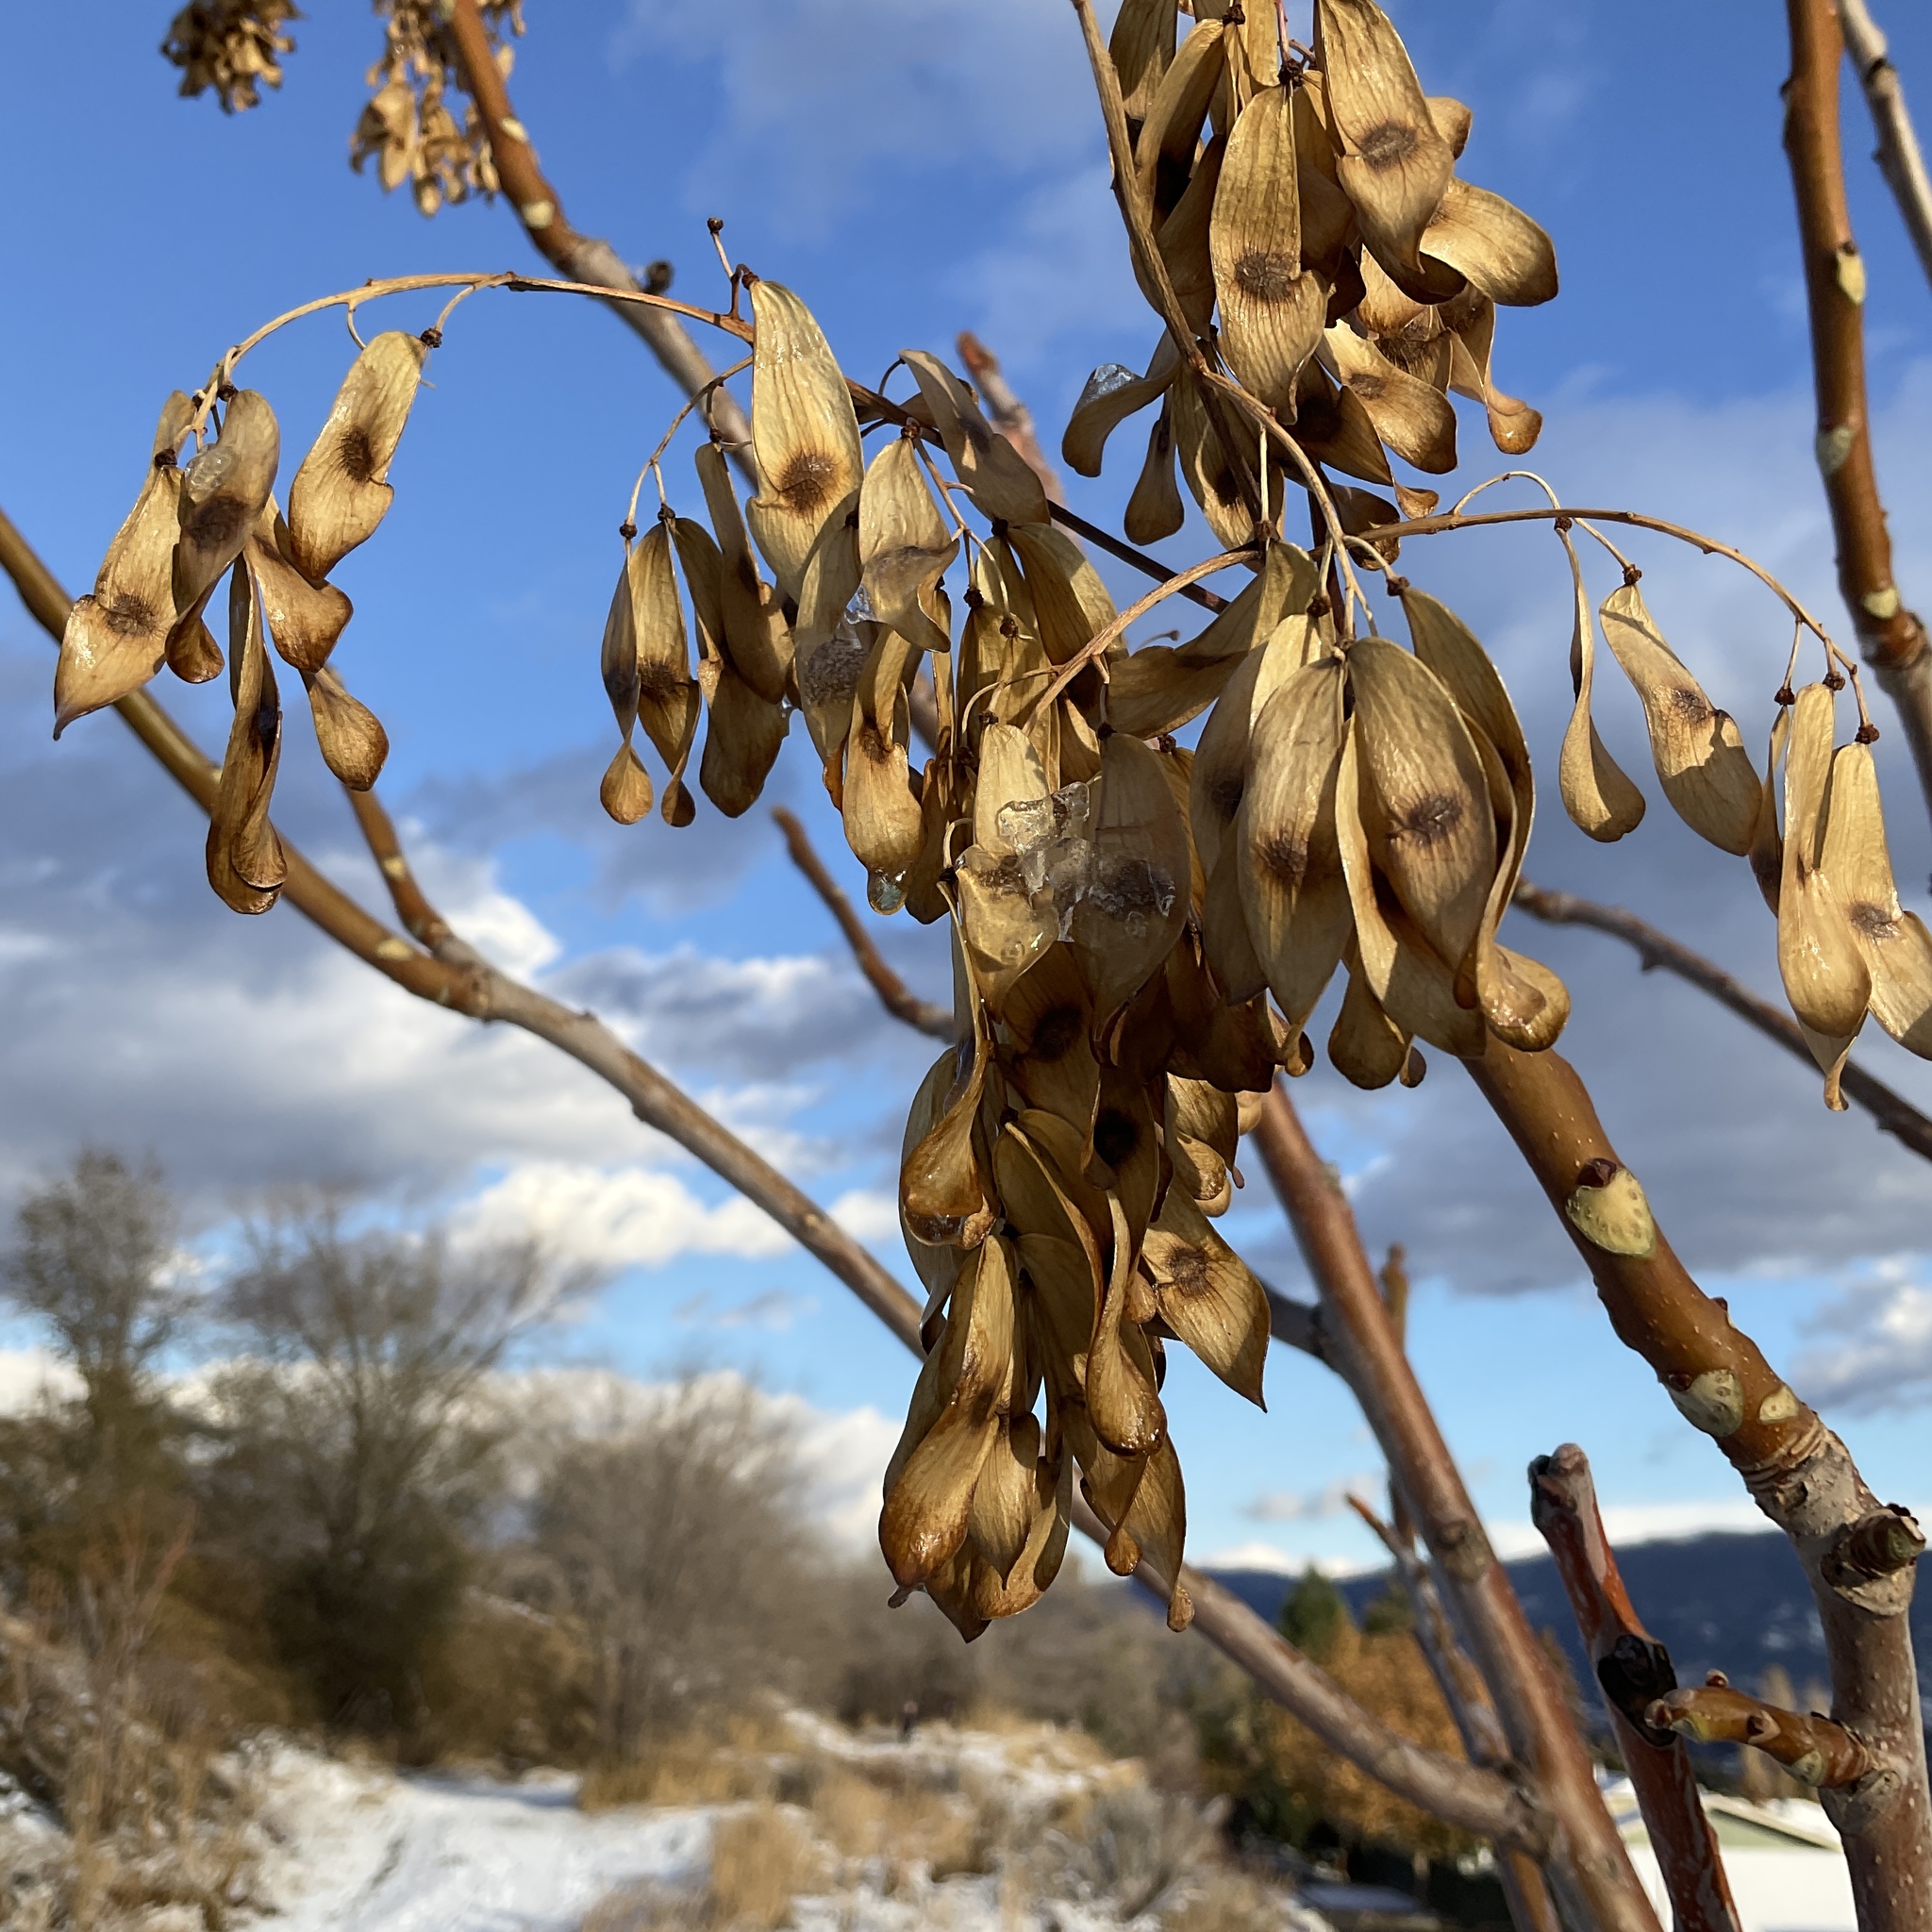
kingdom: Plantae
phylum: Tracheophyta
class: Magnoliopsida
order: Sapindales
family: Simaroubaceae
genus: Ailanthus
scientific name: Ailanthus altissima
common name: Tree-of-heaven
